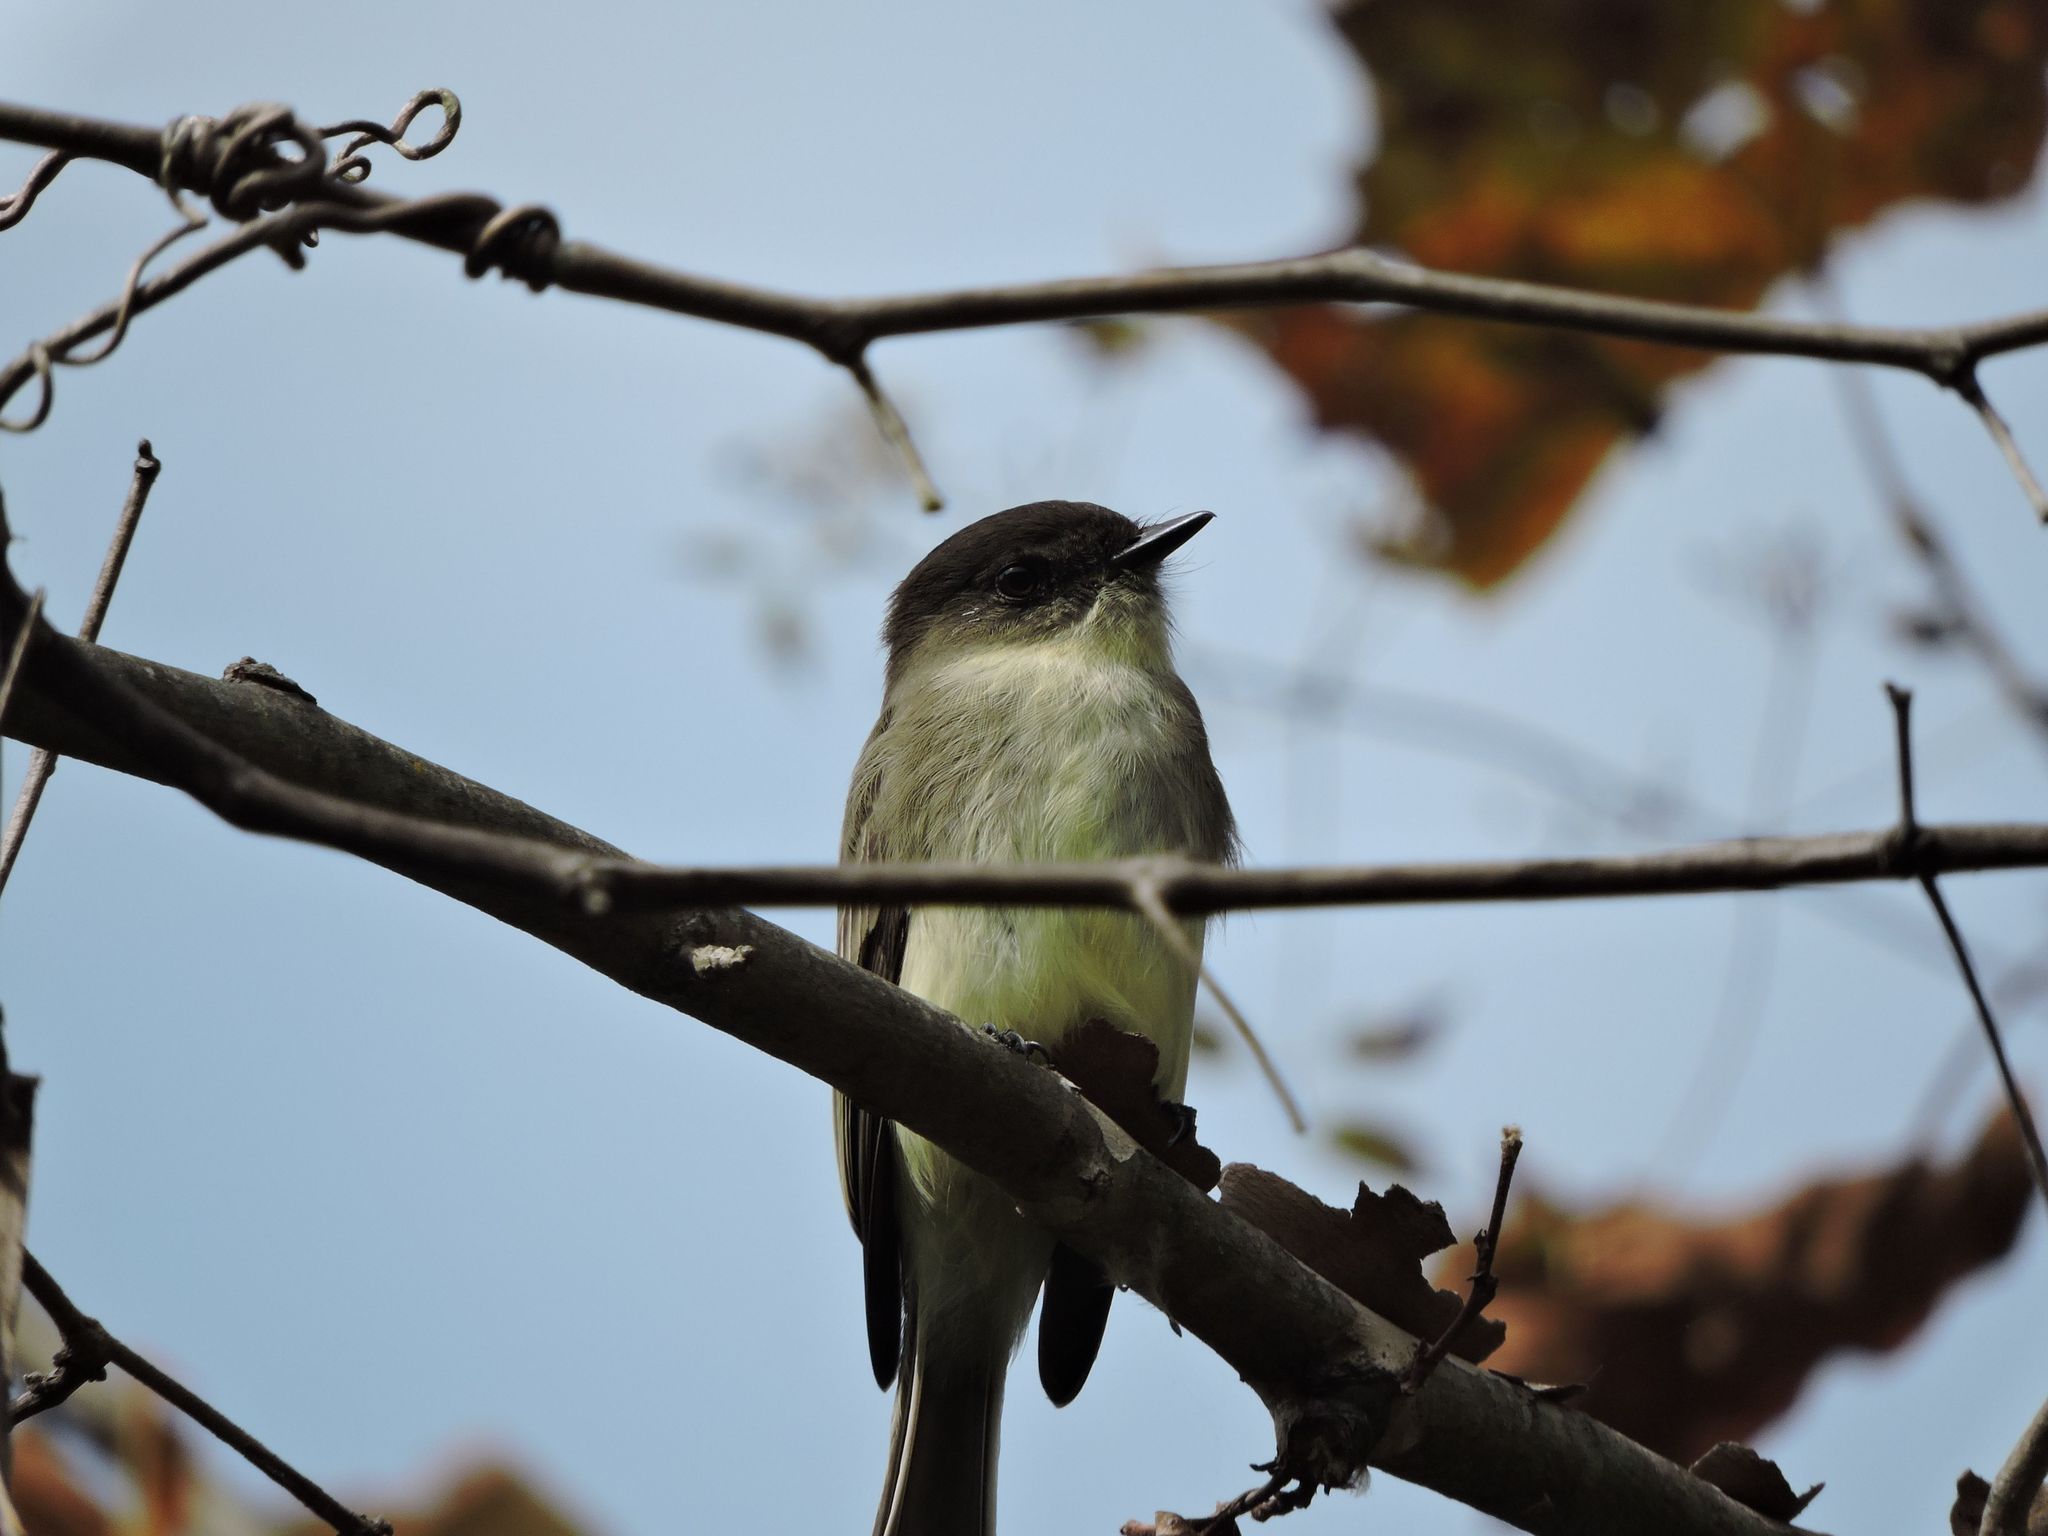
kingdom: Animalia
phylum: Chordata
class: Aves
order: Passeriformes
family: Tyrannidae
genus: Sayornis
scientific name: Sayornis phoebe
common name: Eastern phoebe
